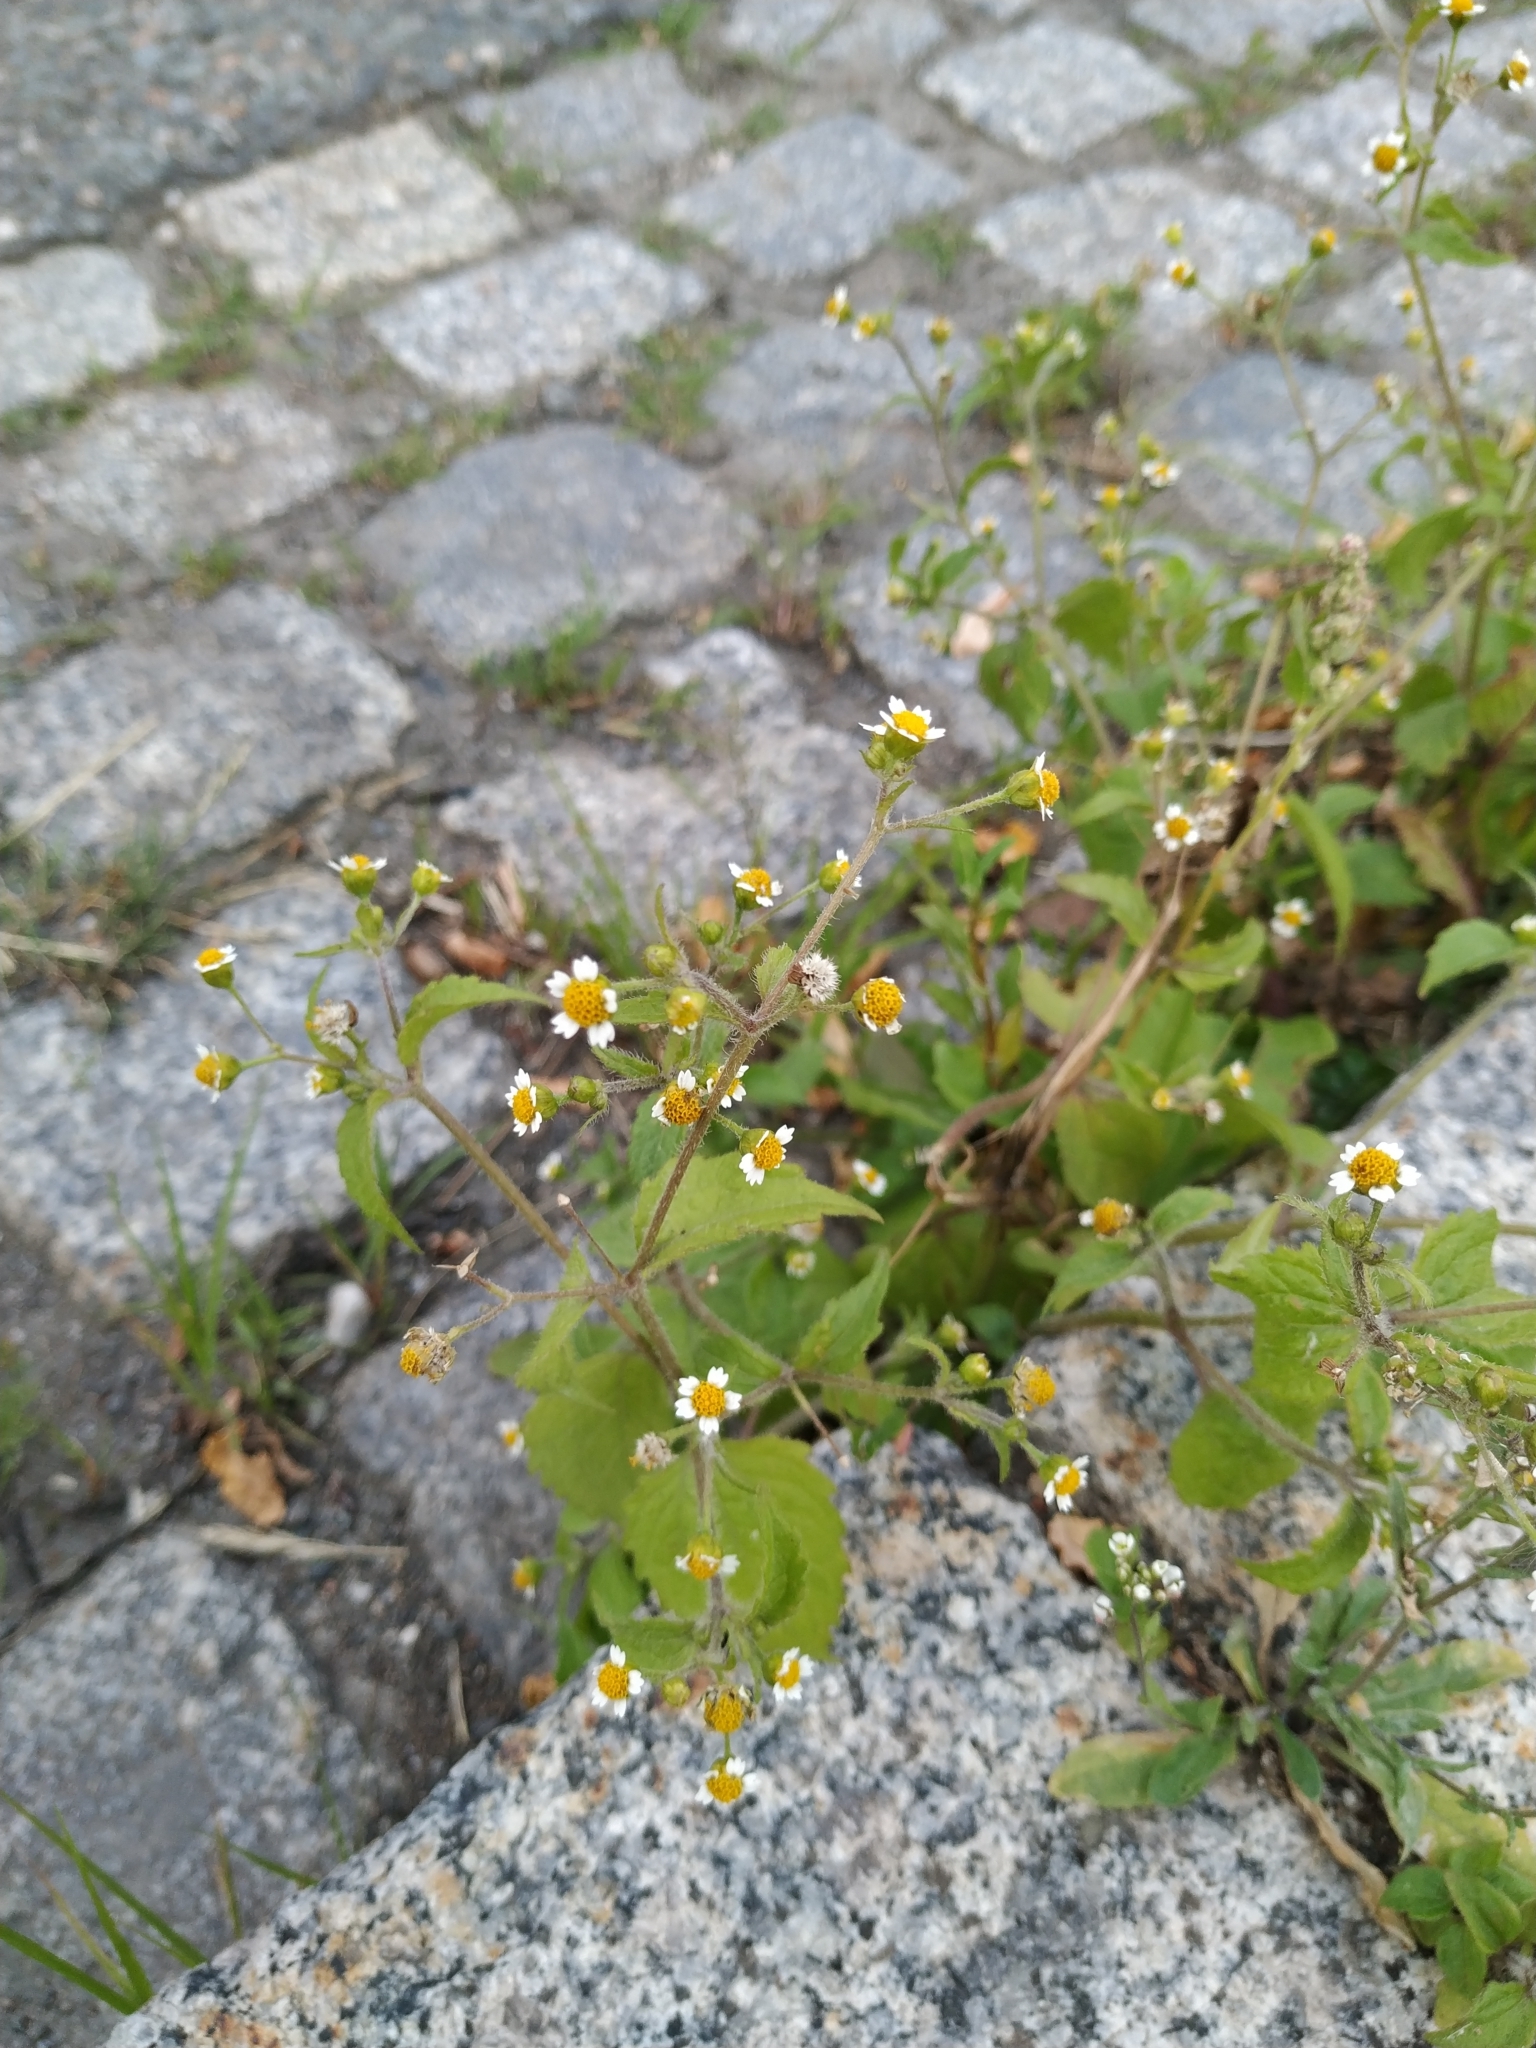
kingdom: Plantae
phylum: Tracheophyta
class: Magnoliopsida
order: Asterales
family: Asteraceae
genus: Galinsoga
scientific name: Galinsoga quadriradiata
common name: Shaggy soldier
